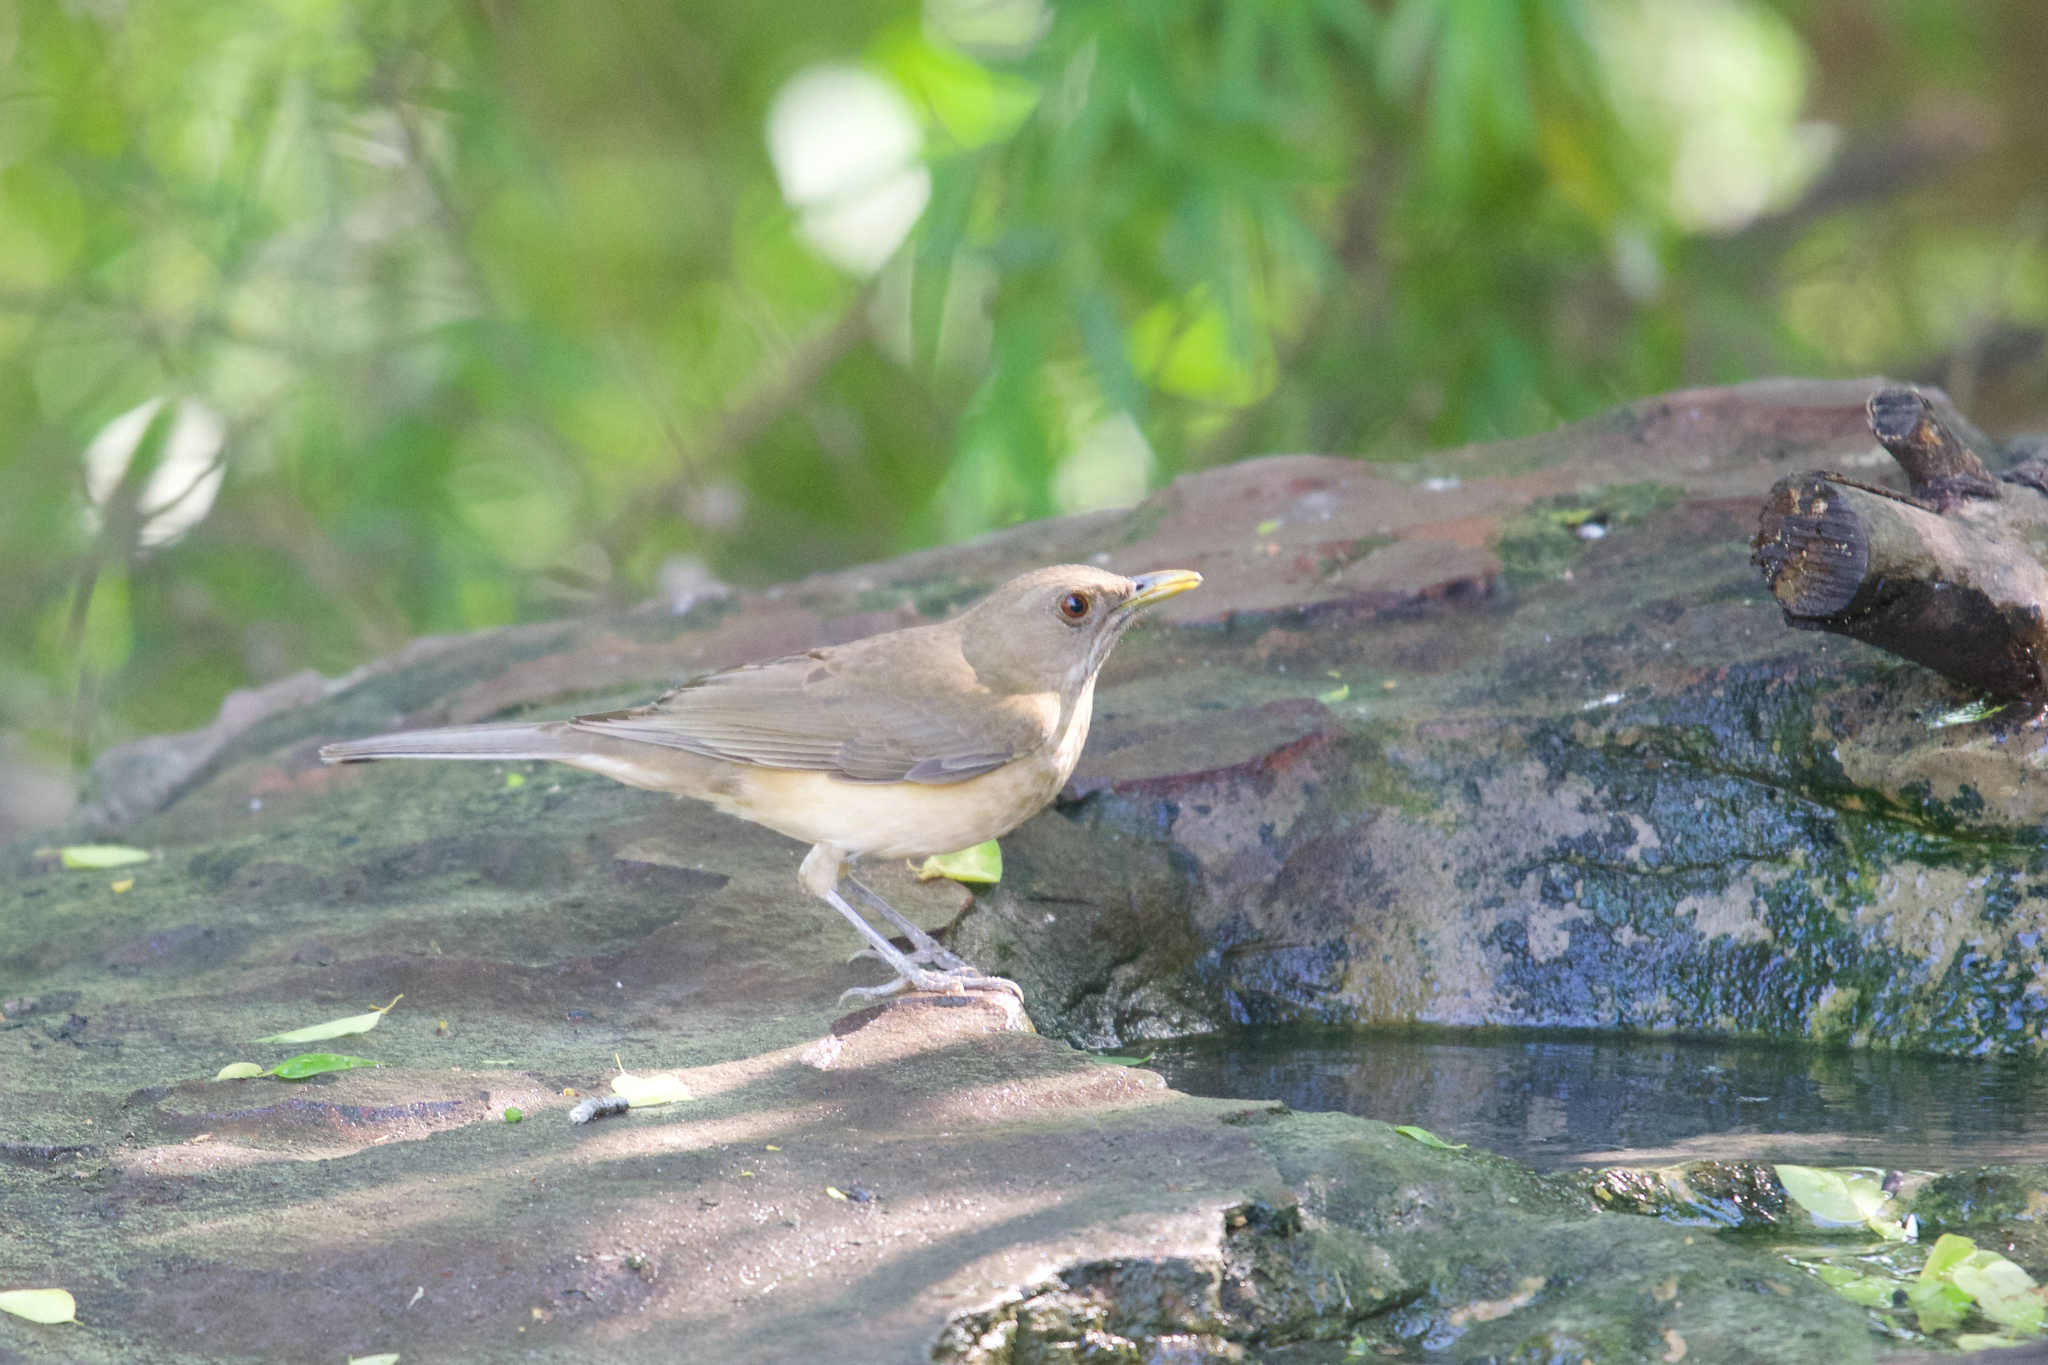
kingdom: Animalia
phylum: Chordata
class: Aves
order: Passeriformes
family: Turdidae
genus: Turdus
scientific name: Turdus grayi
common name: Clay-colored thrush
